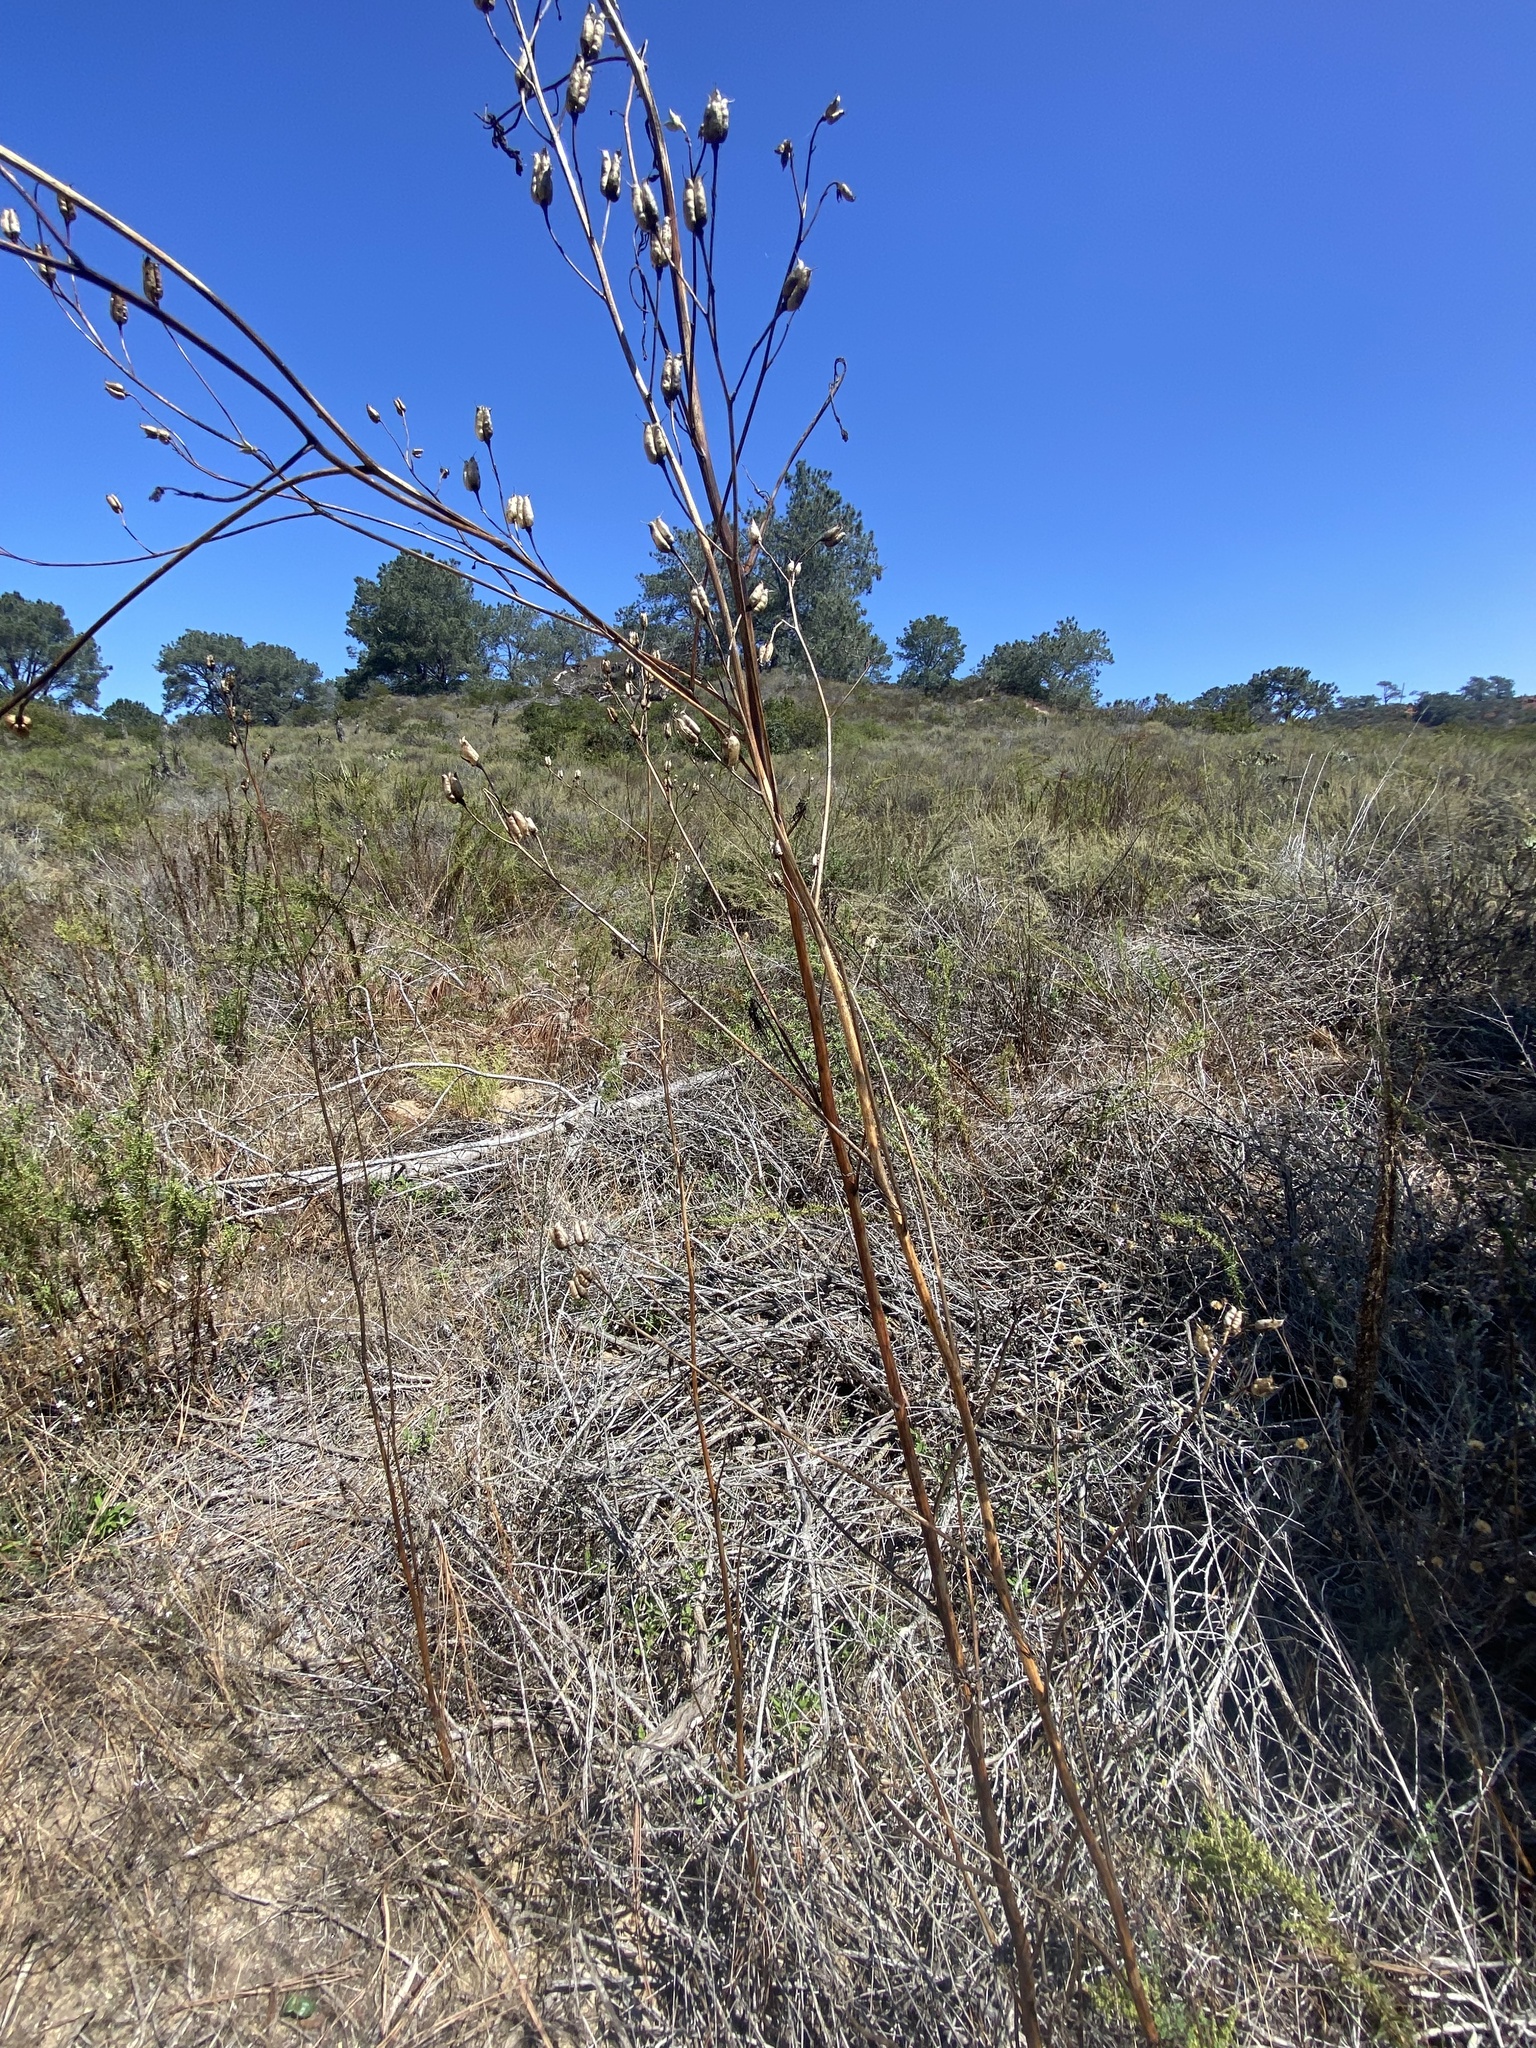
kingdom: Plantae
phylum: Tracheophyta
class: Magnoliopsida
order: Ranunculales
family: Ranunculaceae
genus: Delphinium
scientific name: Delphinium cardinale
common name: Scarlet larkspur
